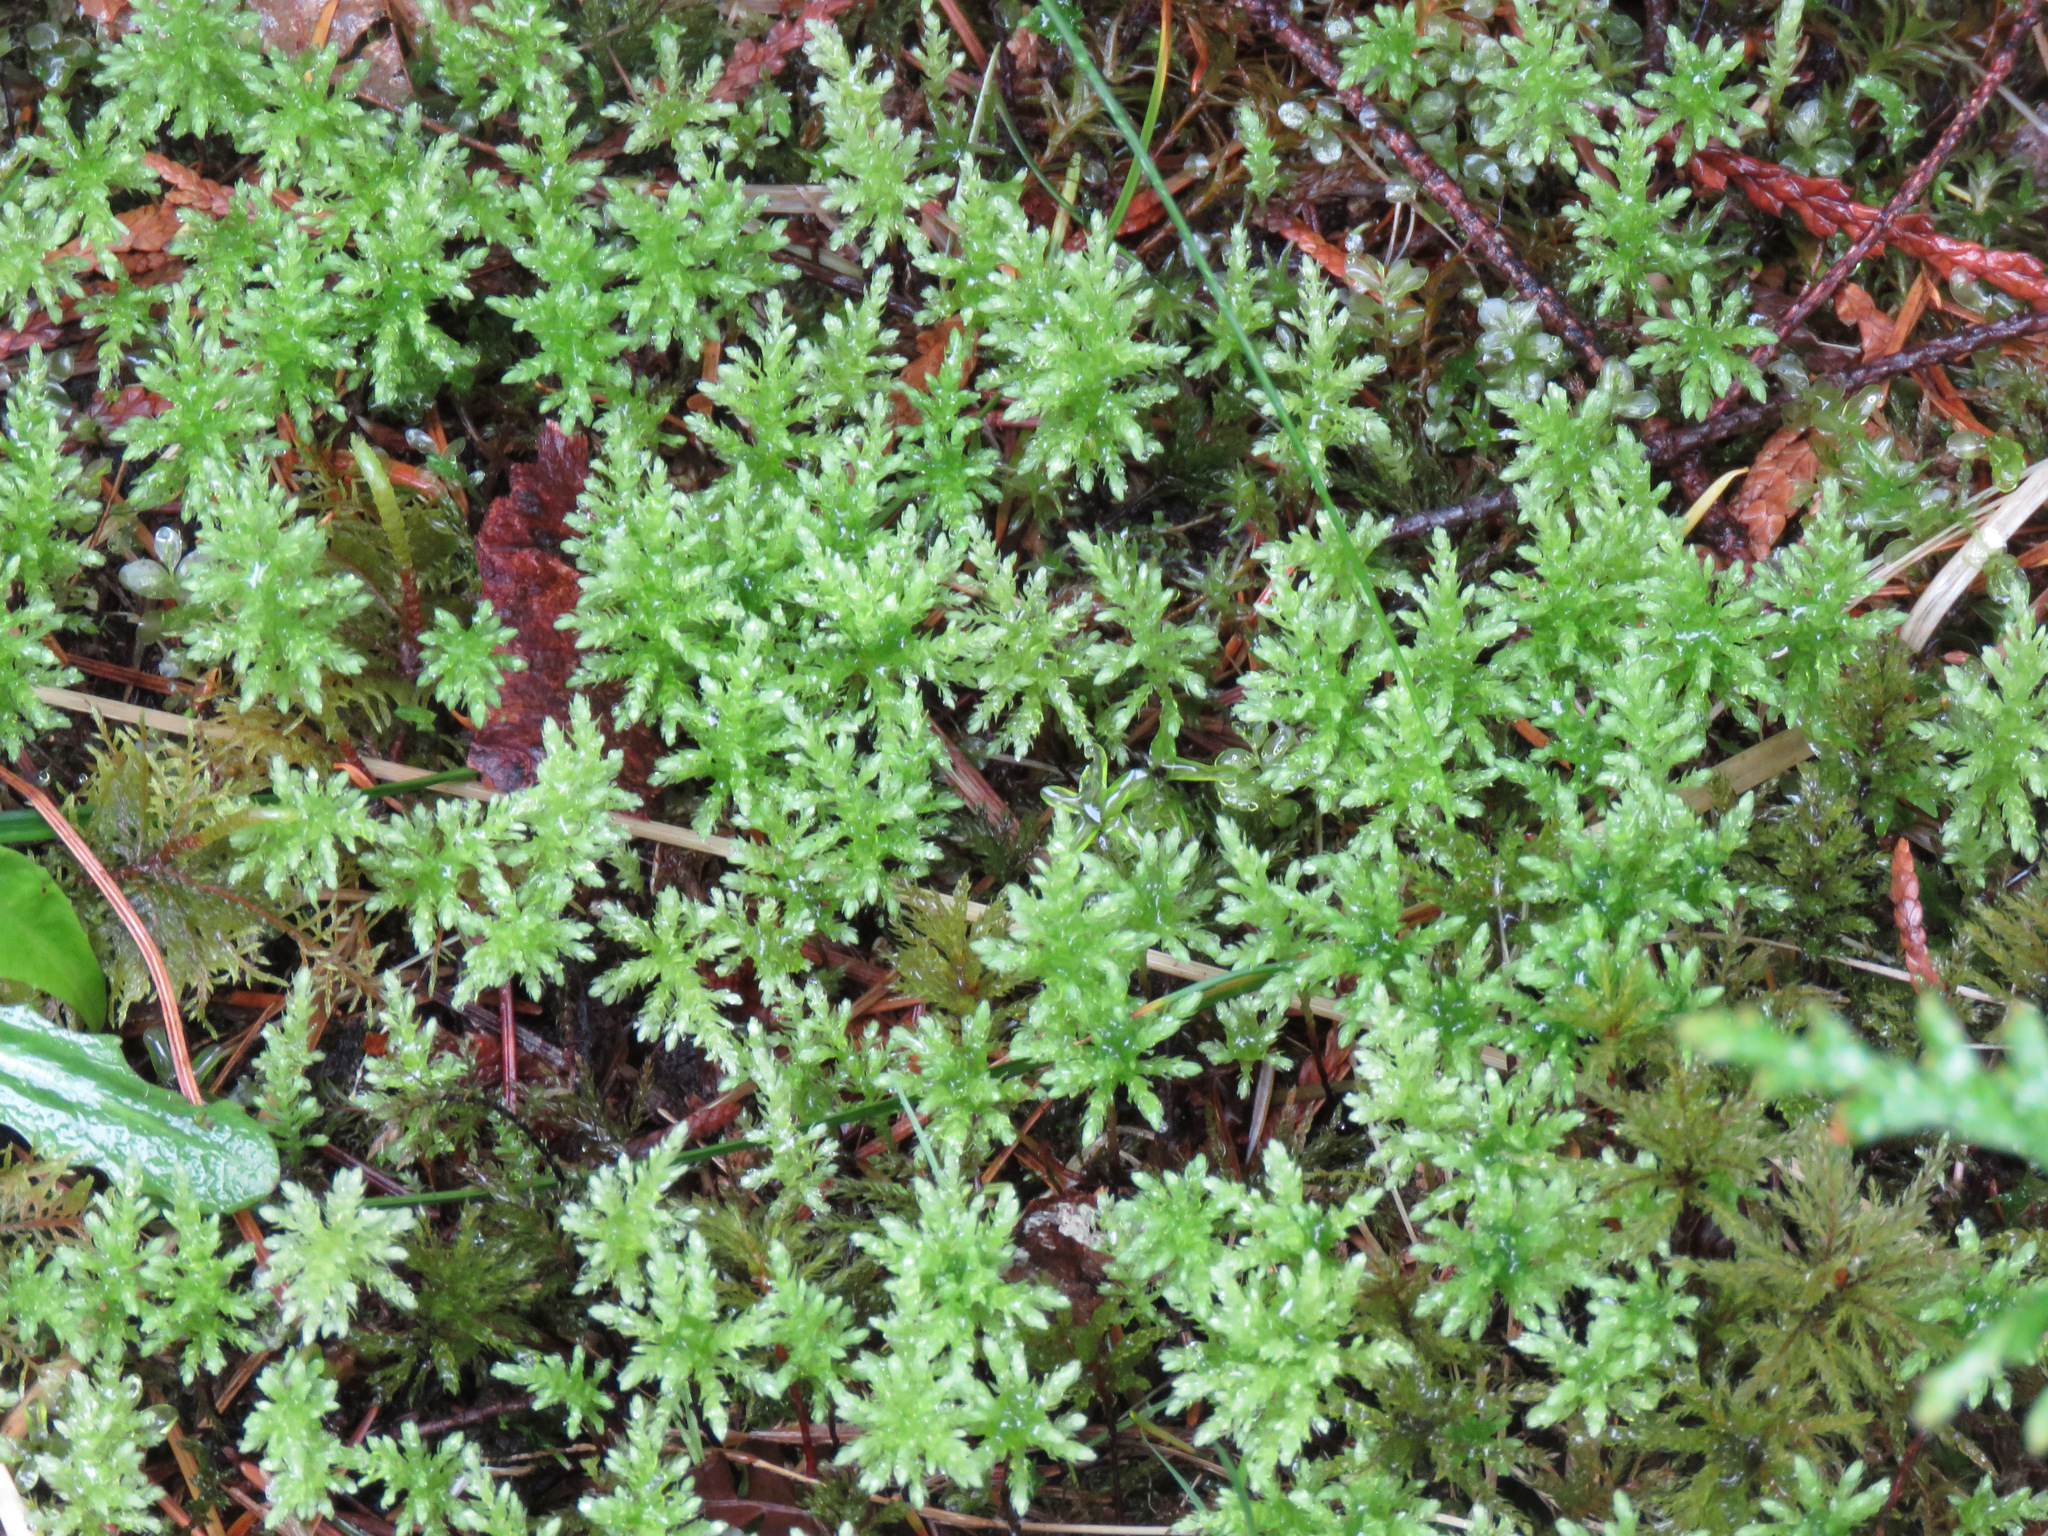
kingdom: Plantae
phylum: Bryophyta
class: Bryopsida
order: Bryales
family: Mniaceae
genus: Leucolepis
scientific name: Leucolepis acanthoneura
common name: Leucolepis umbrella moss
